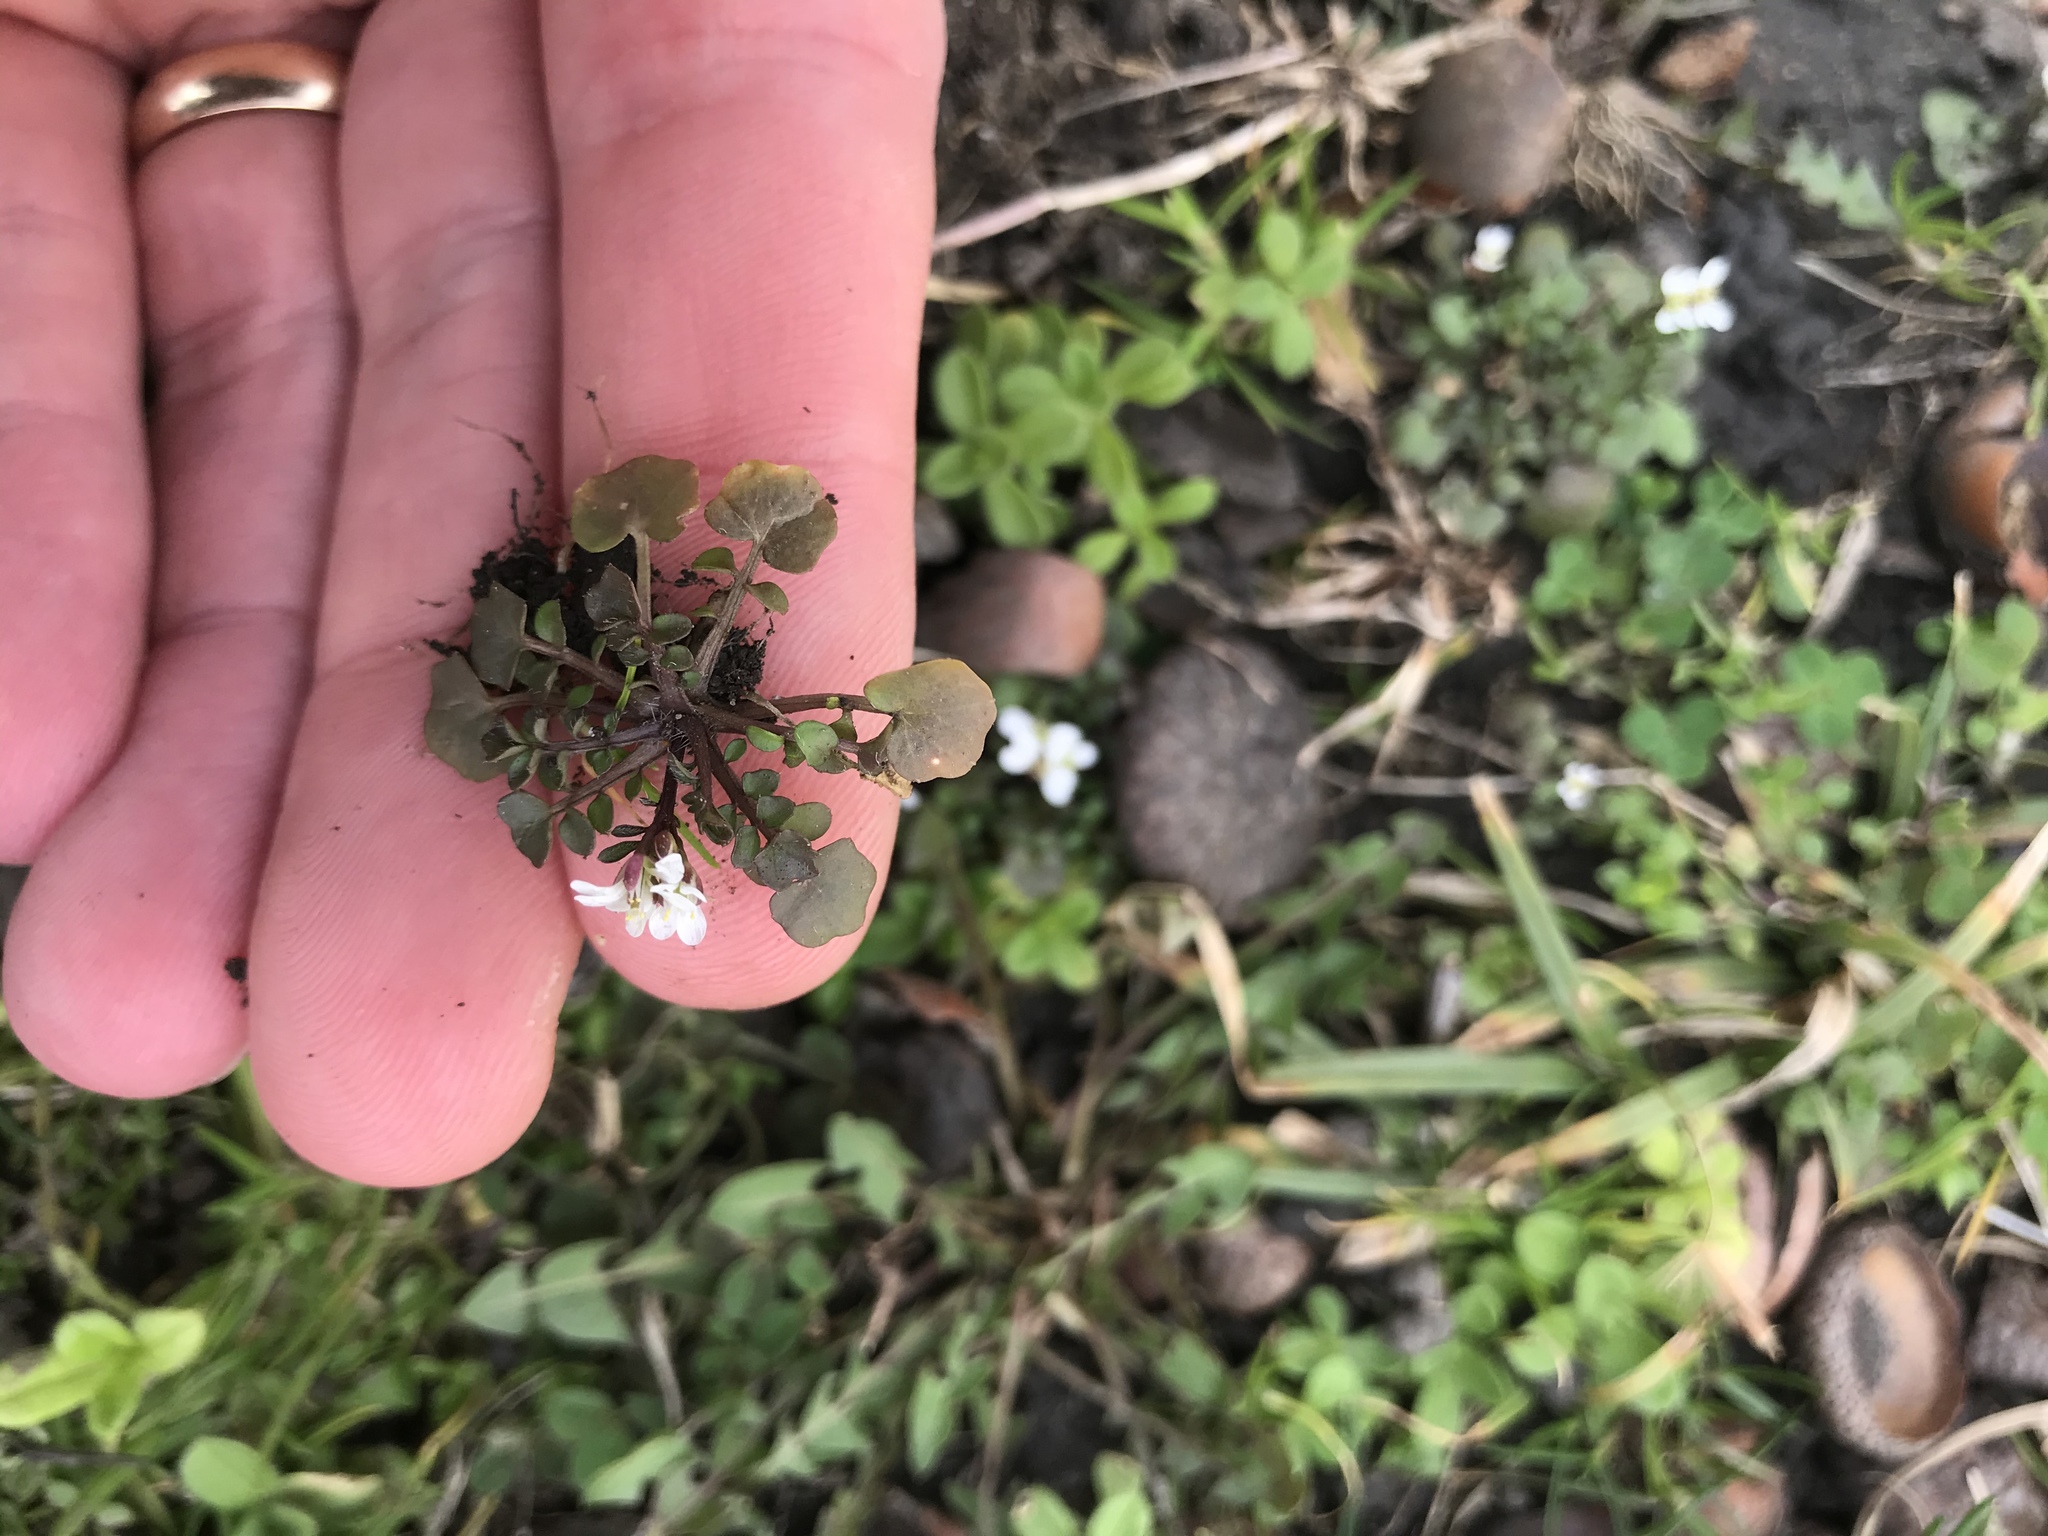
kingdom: Plantae
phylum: Tracheophyta
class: Magnoliopsida
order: Brassicales
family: Brassicaceae
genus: Cardamine
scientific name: Cardamine hirsuta
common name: Hairy bittercress
